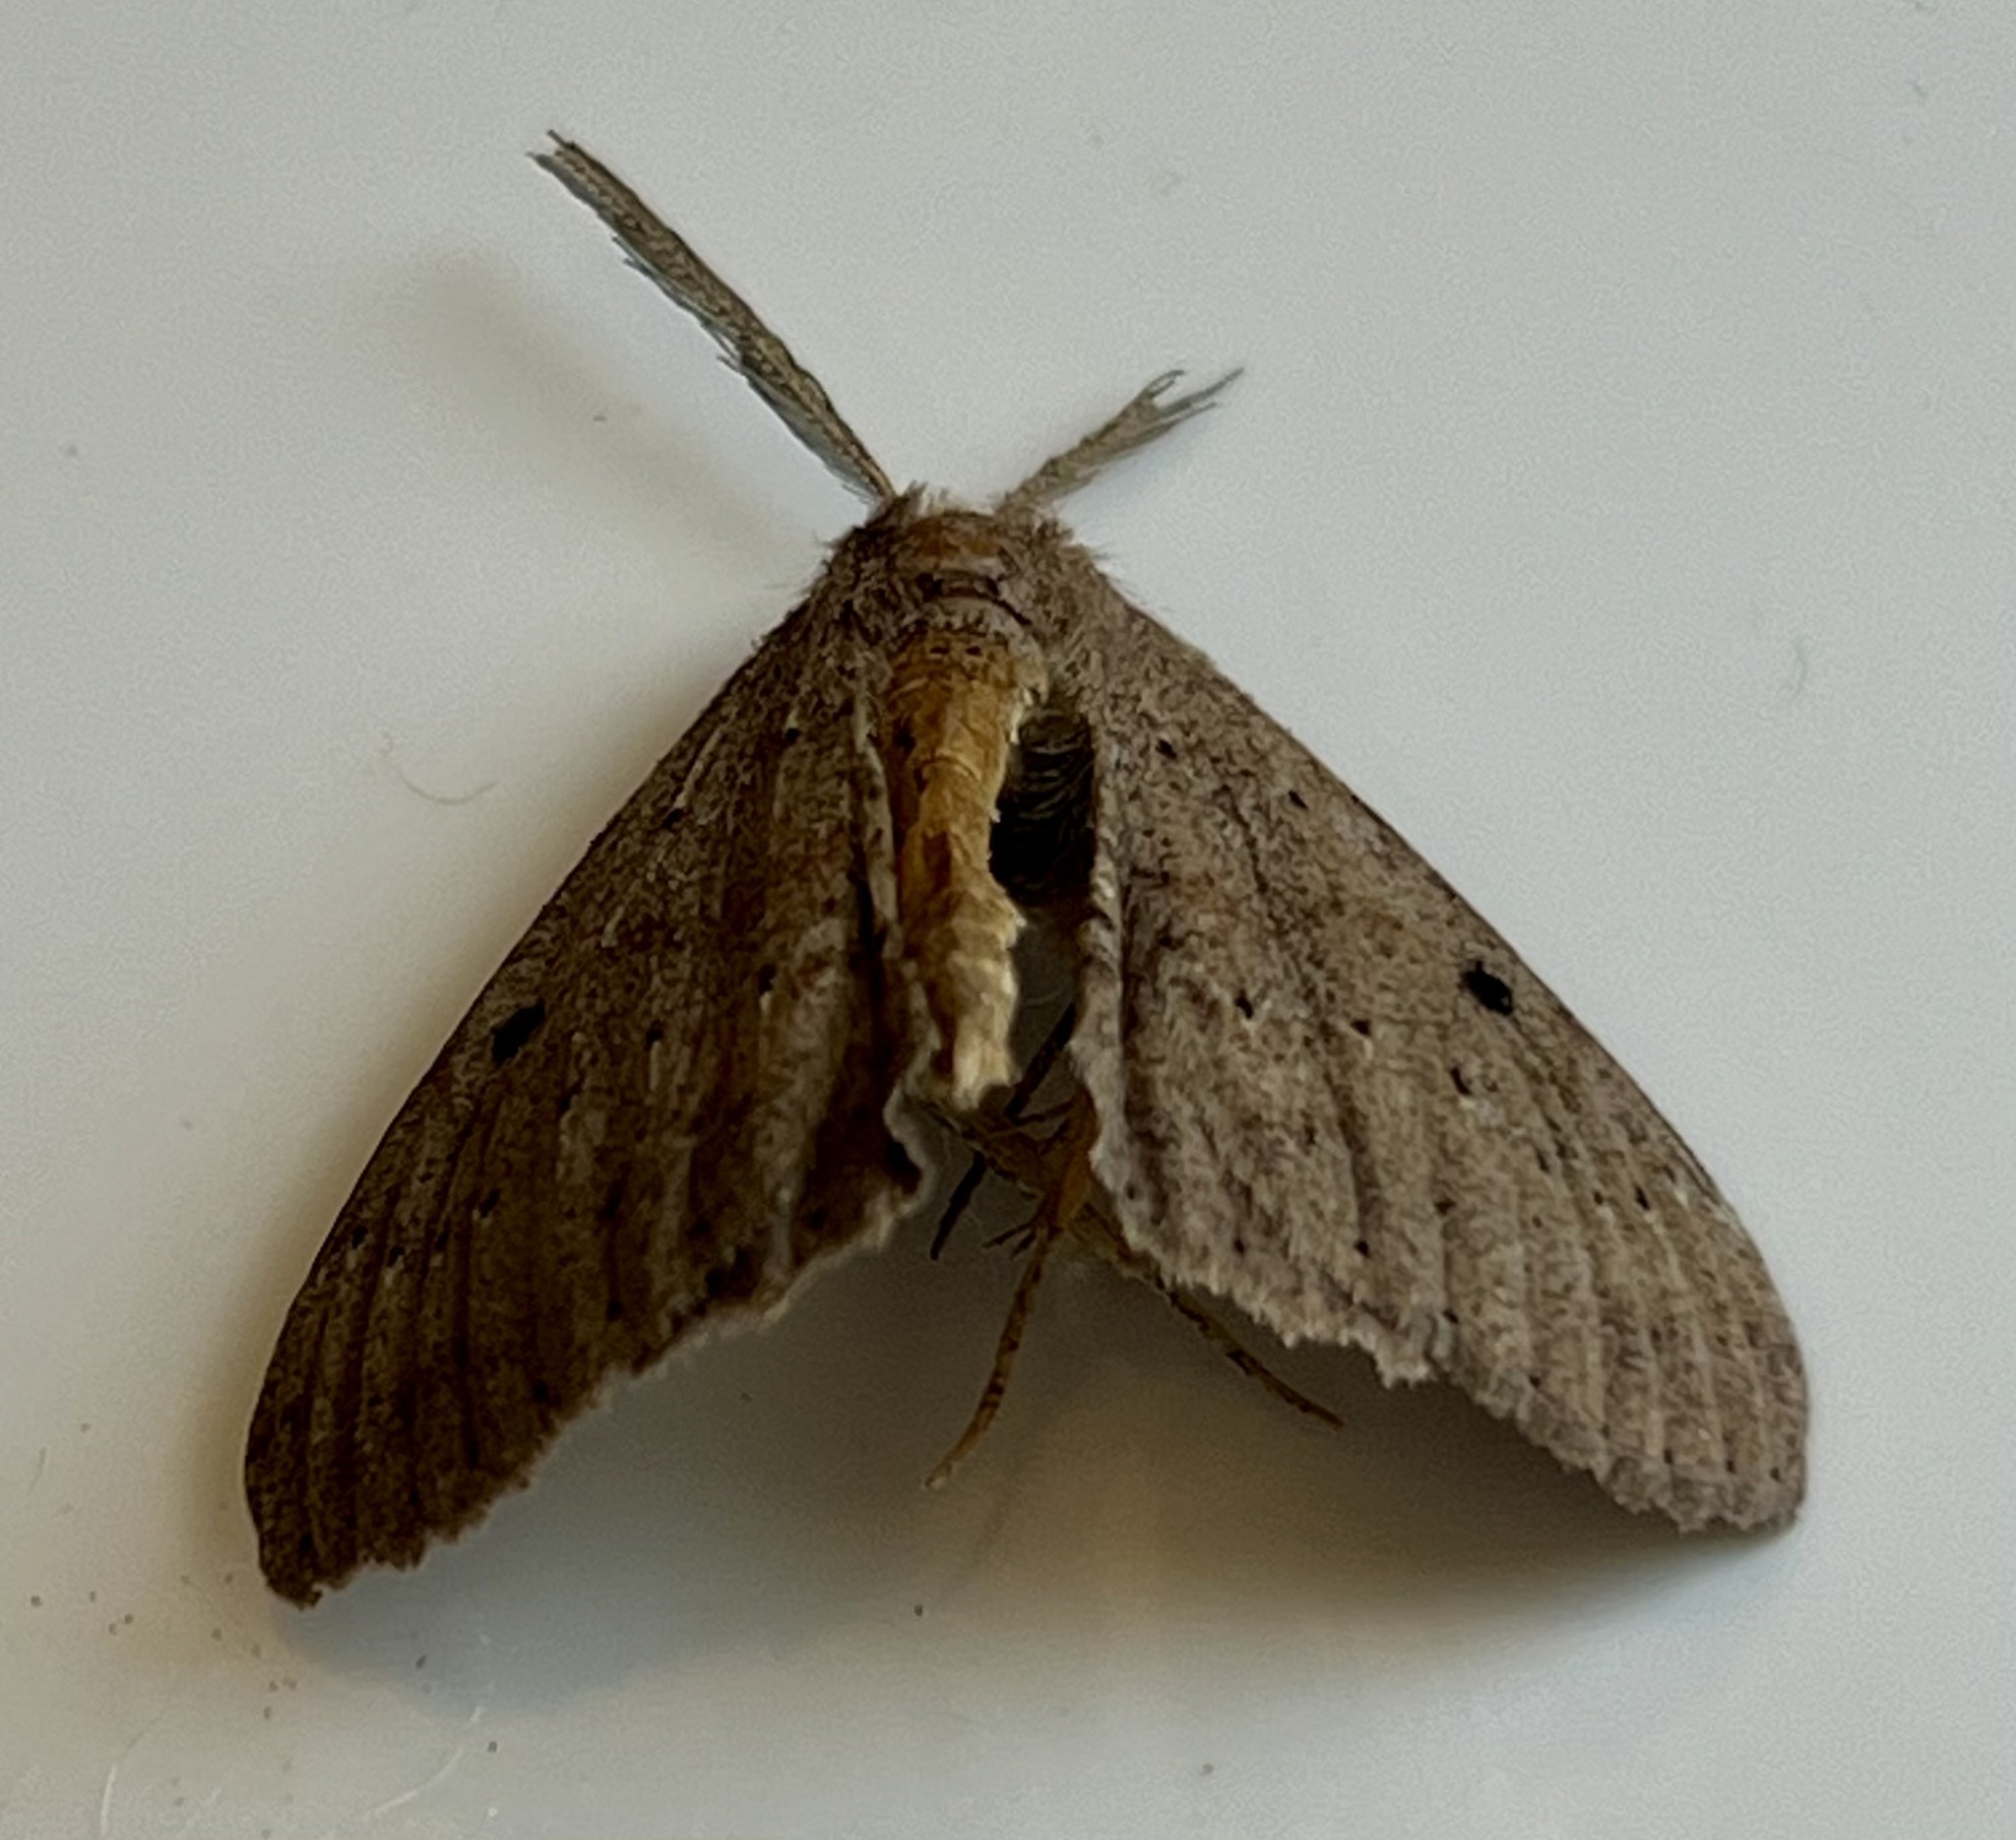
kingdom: Animalia
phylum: Arthropoda
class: Insecta
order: Lepidoptera
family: Geometridae
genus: Cleora
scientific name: Cleora scriptaria
